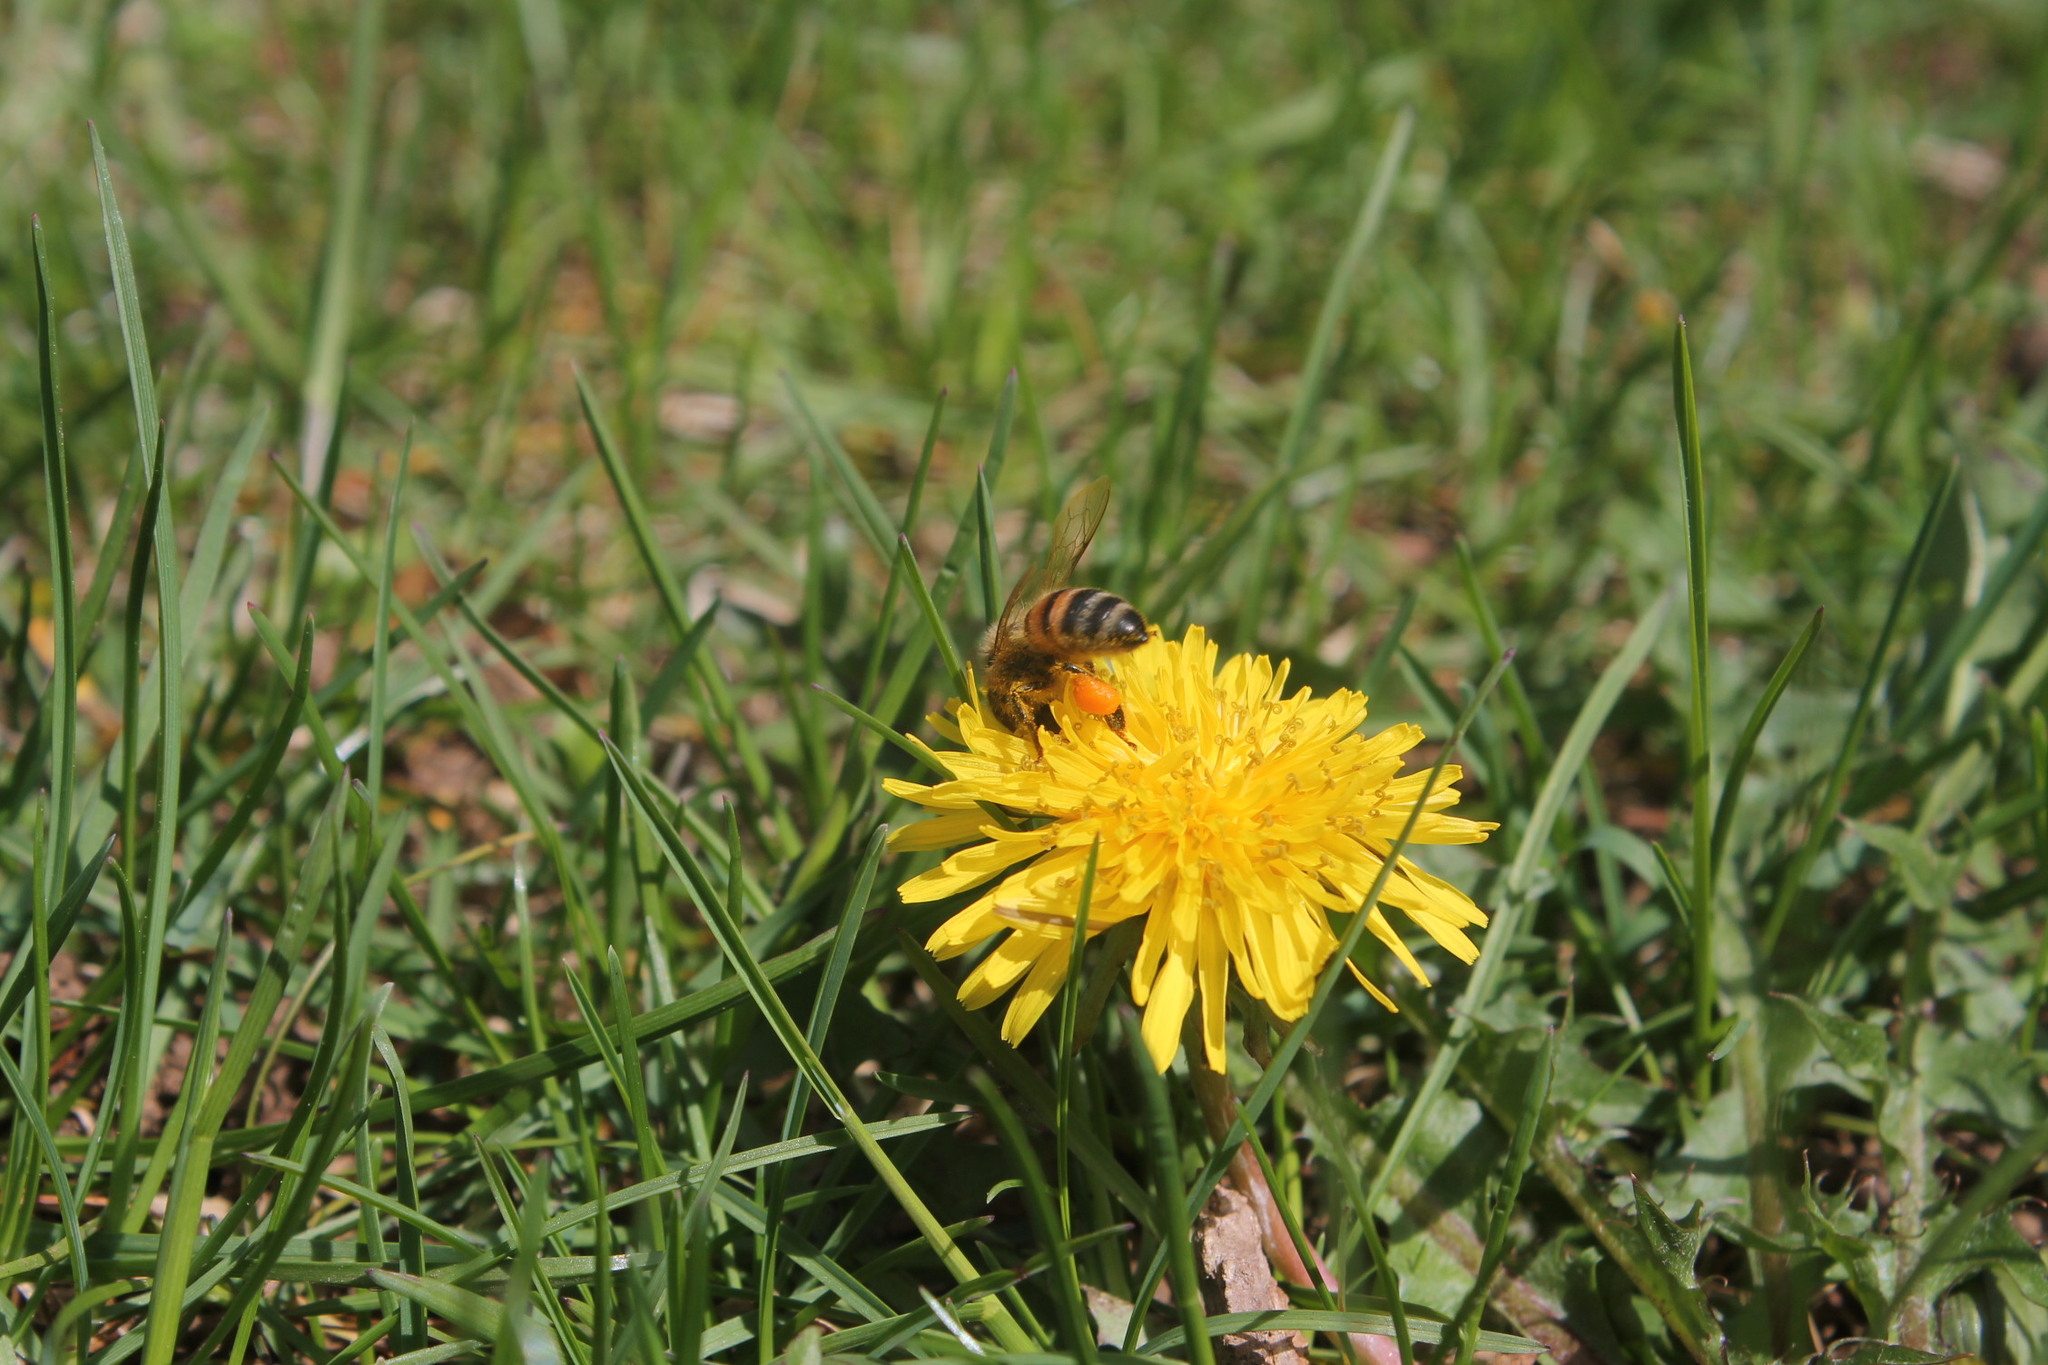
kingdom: Animalia
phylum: Arthropoda
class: Insecta
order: Hymenoptera
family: Apidae
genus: Apis
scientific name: Apis mellifera
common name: Honey bee
